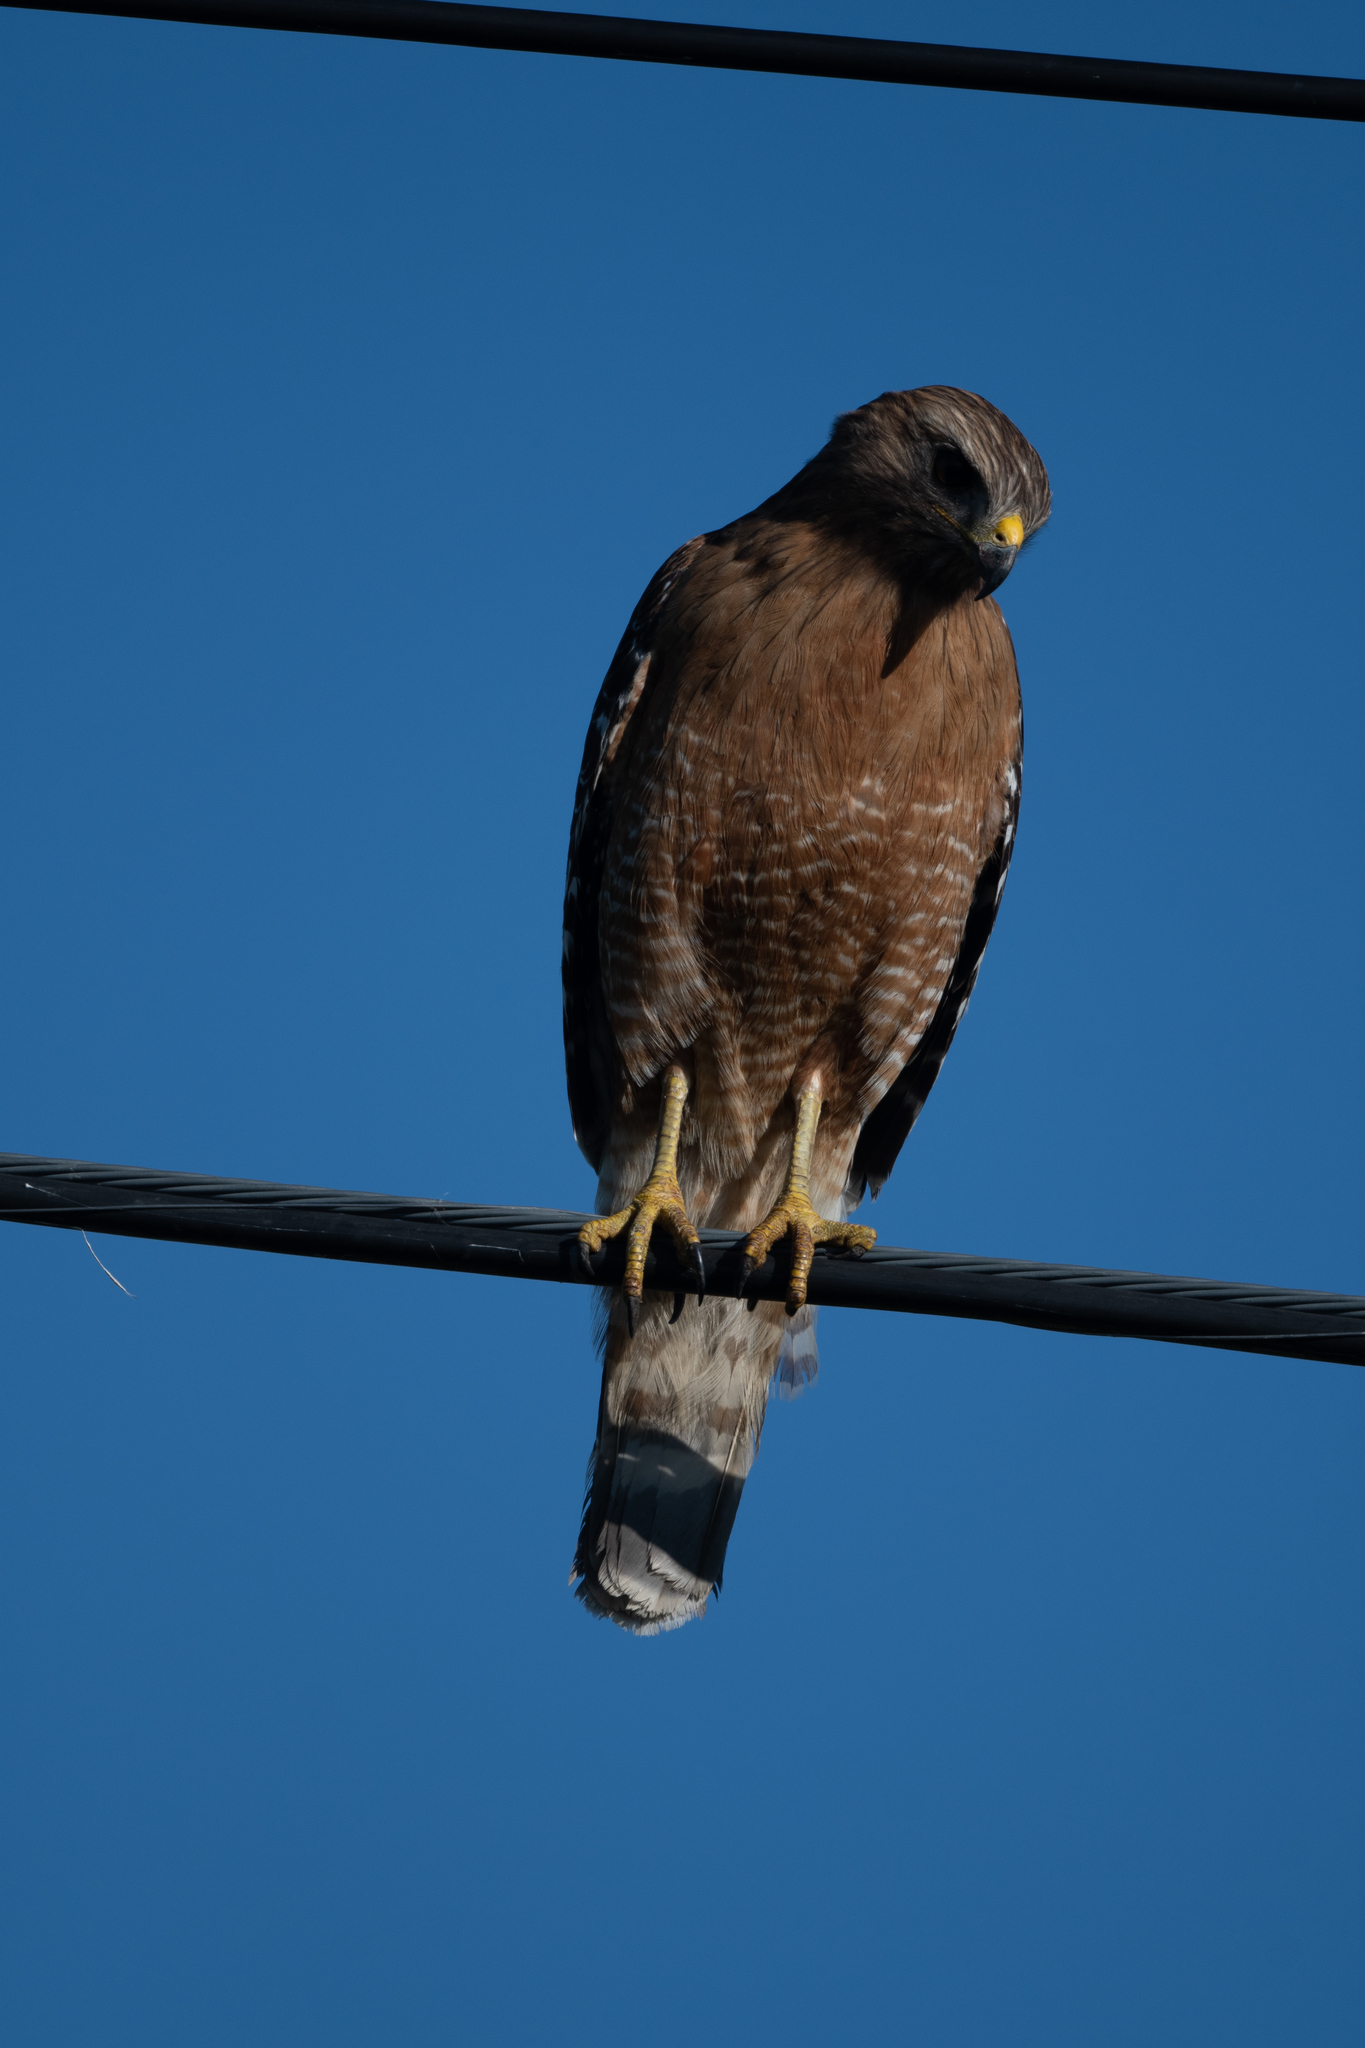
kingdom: Animalia
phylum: Chordata
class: Aves
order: Accipitriformes
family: Accipitridae
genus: Buteo
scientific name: Buteo lineatus
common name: Red-shouldered hawk
